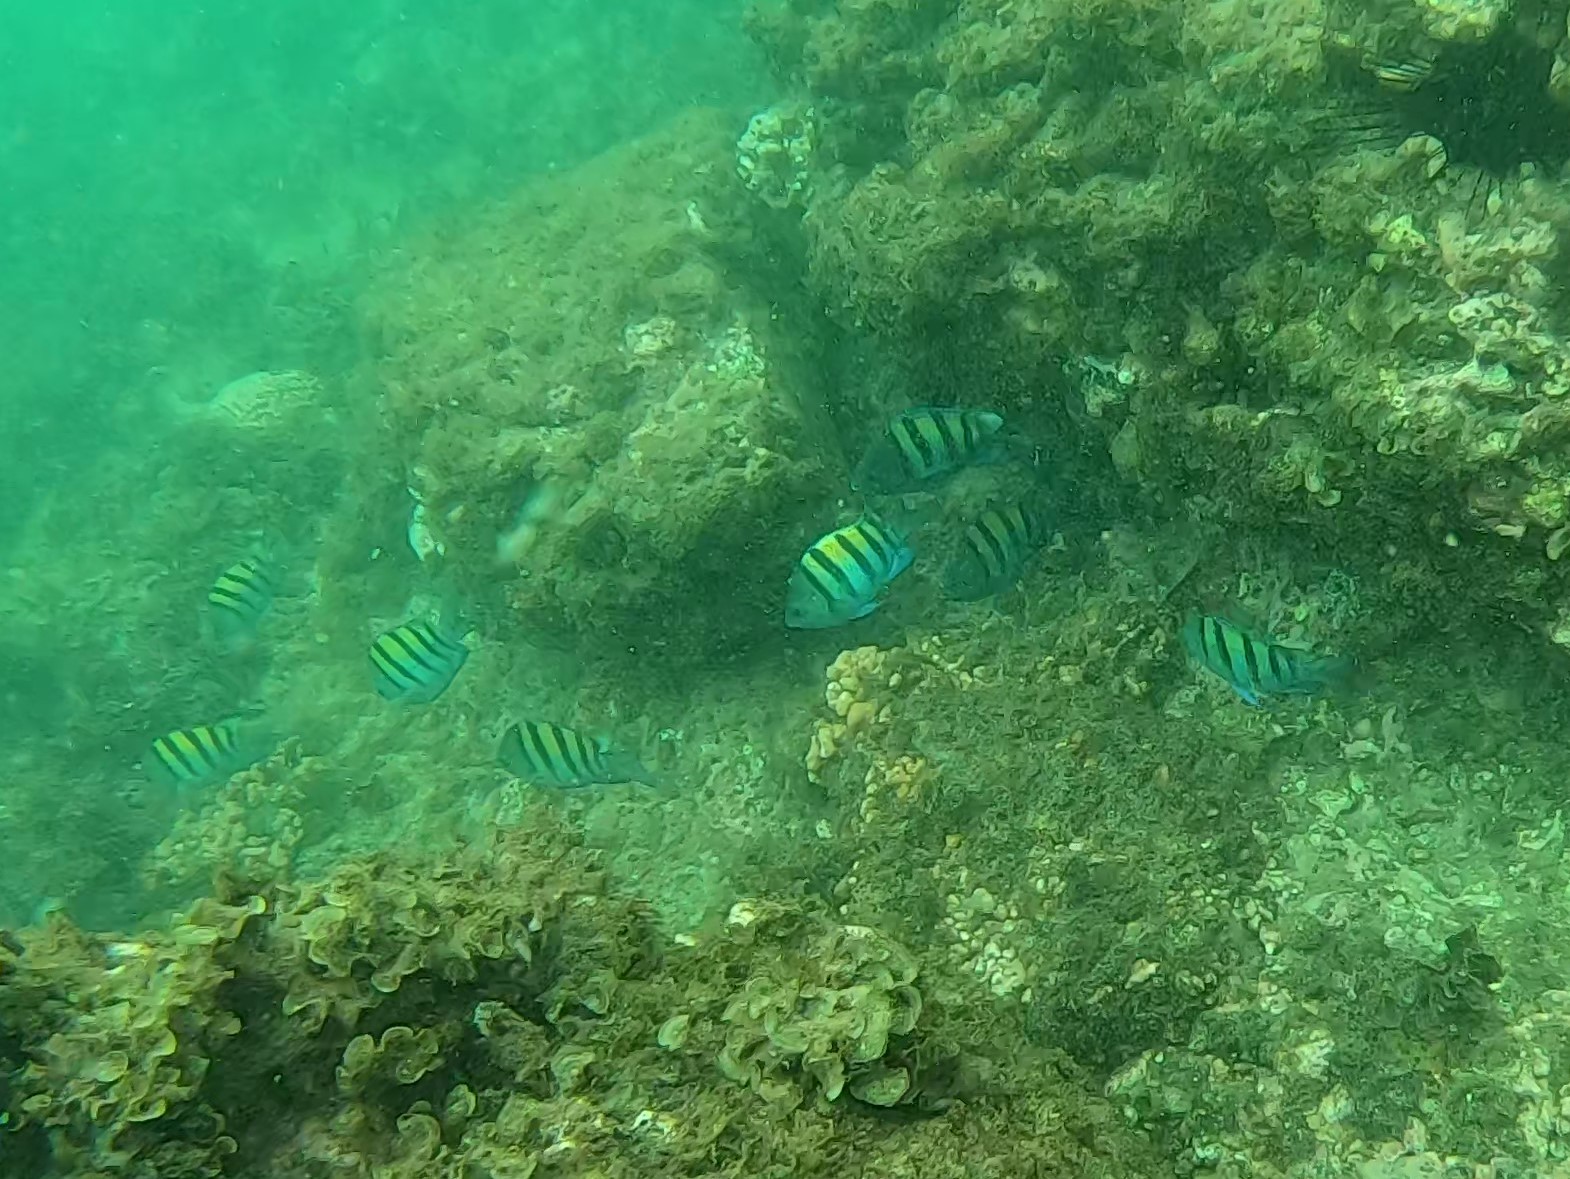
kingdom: Animalia
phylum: Chordata
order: Perciformes
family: Pomacentridae
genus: Abudefduf
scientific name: Abudefduf troschelii
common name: Panamic sergeant major
